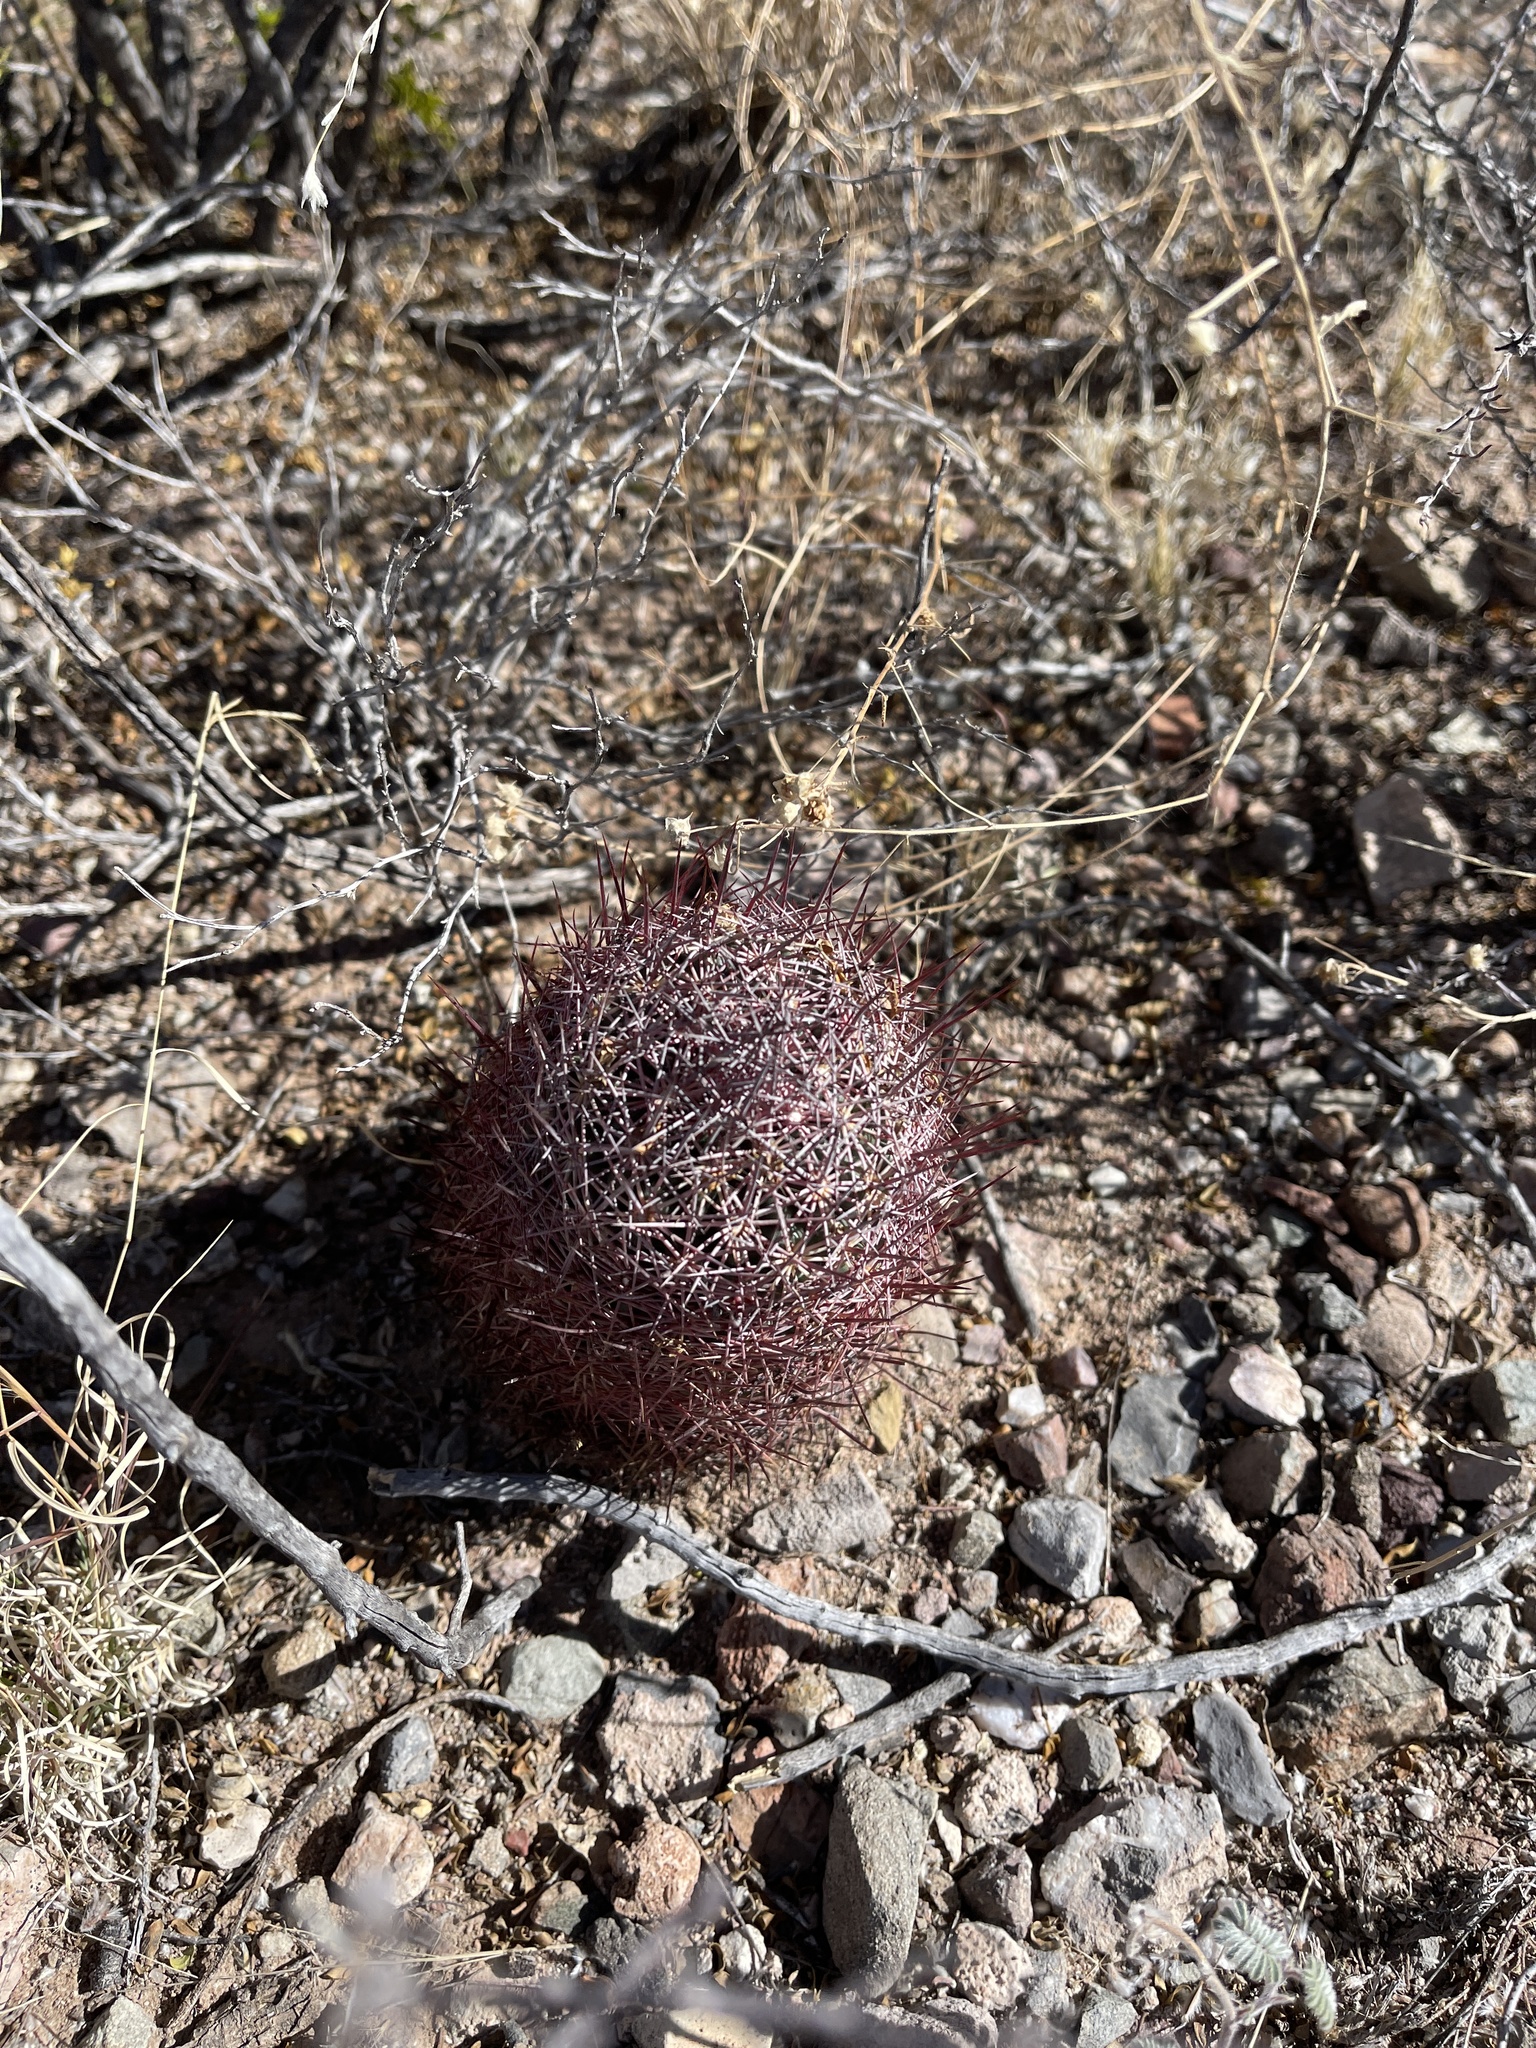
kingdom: Plantae
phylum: Tracheophyta
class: Magnoliopsida
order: Caryophyllales
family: Cactaceae
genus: Sclerocactus
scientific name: Sclerocactus johnsonii
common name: Eight-spine fishhook cactus
